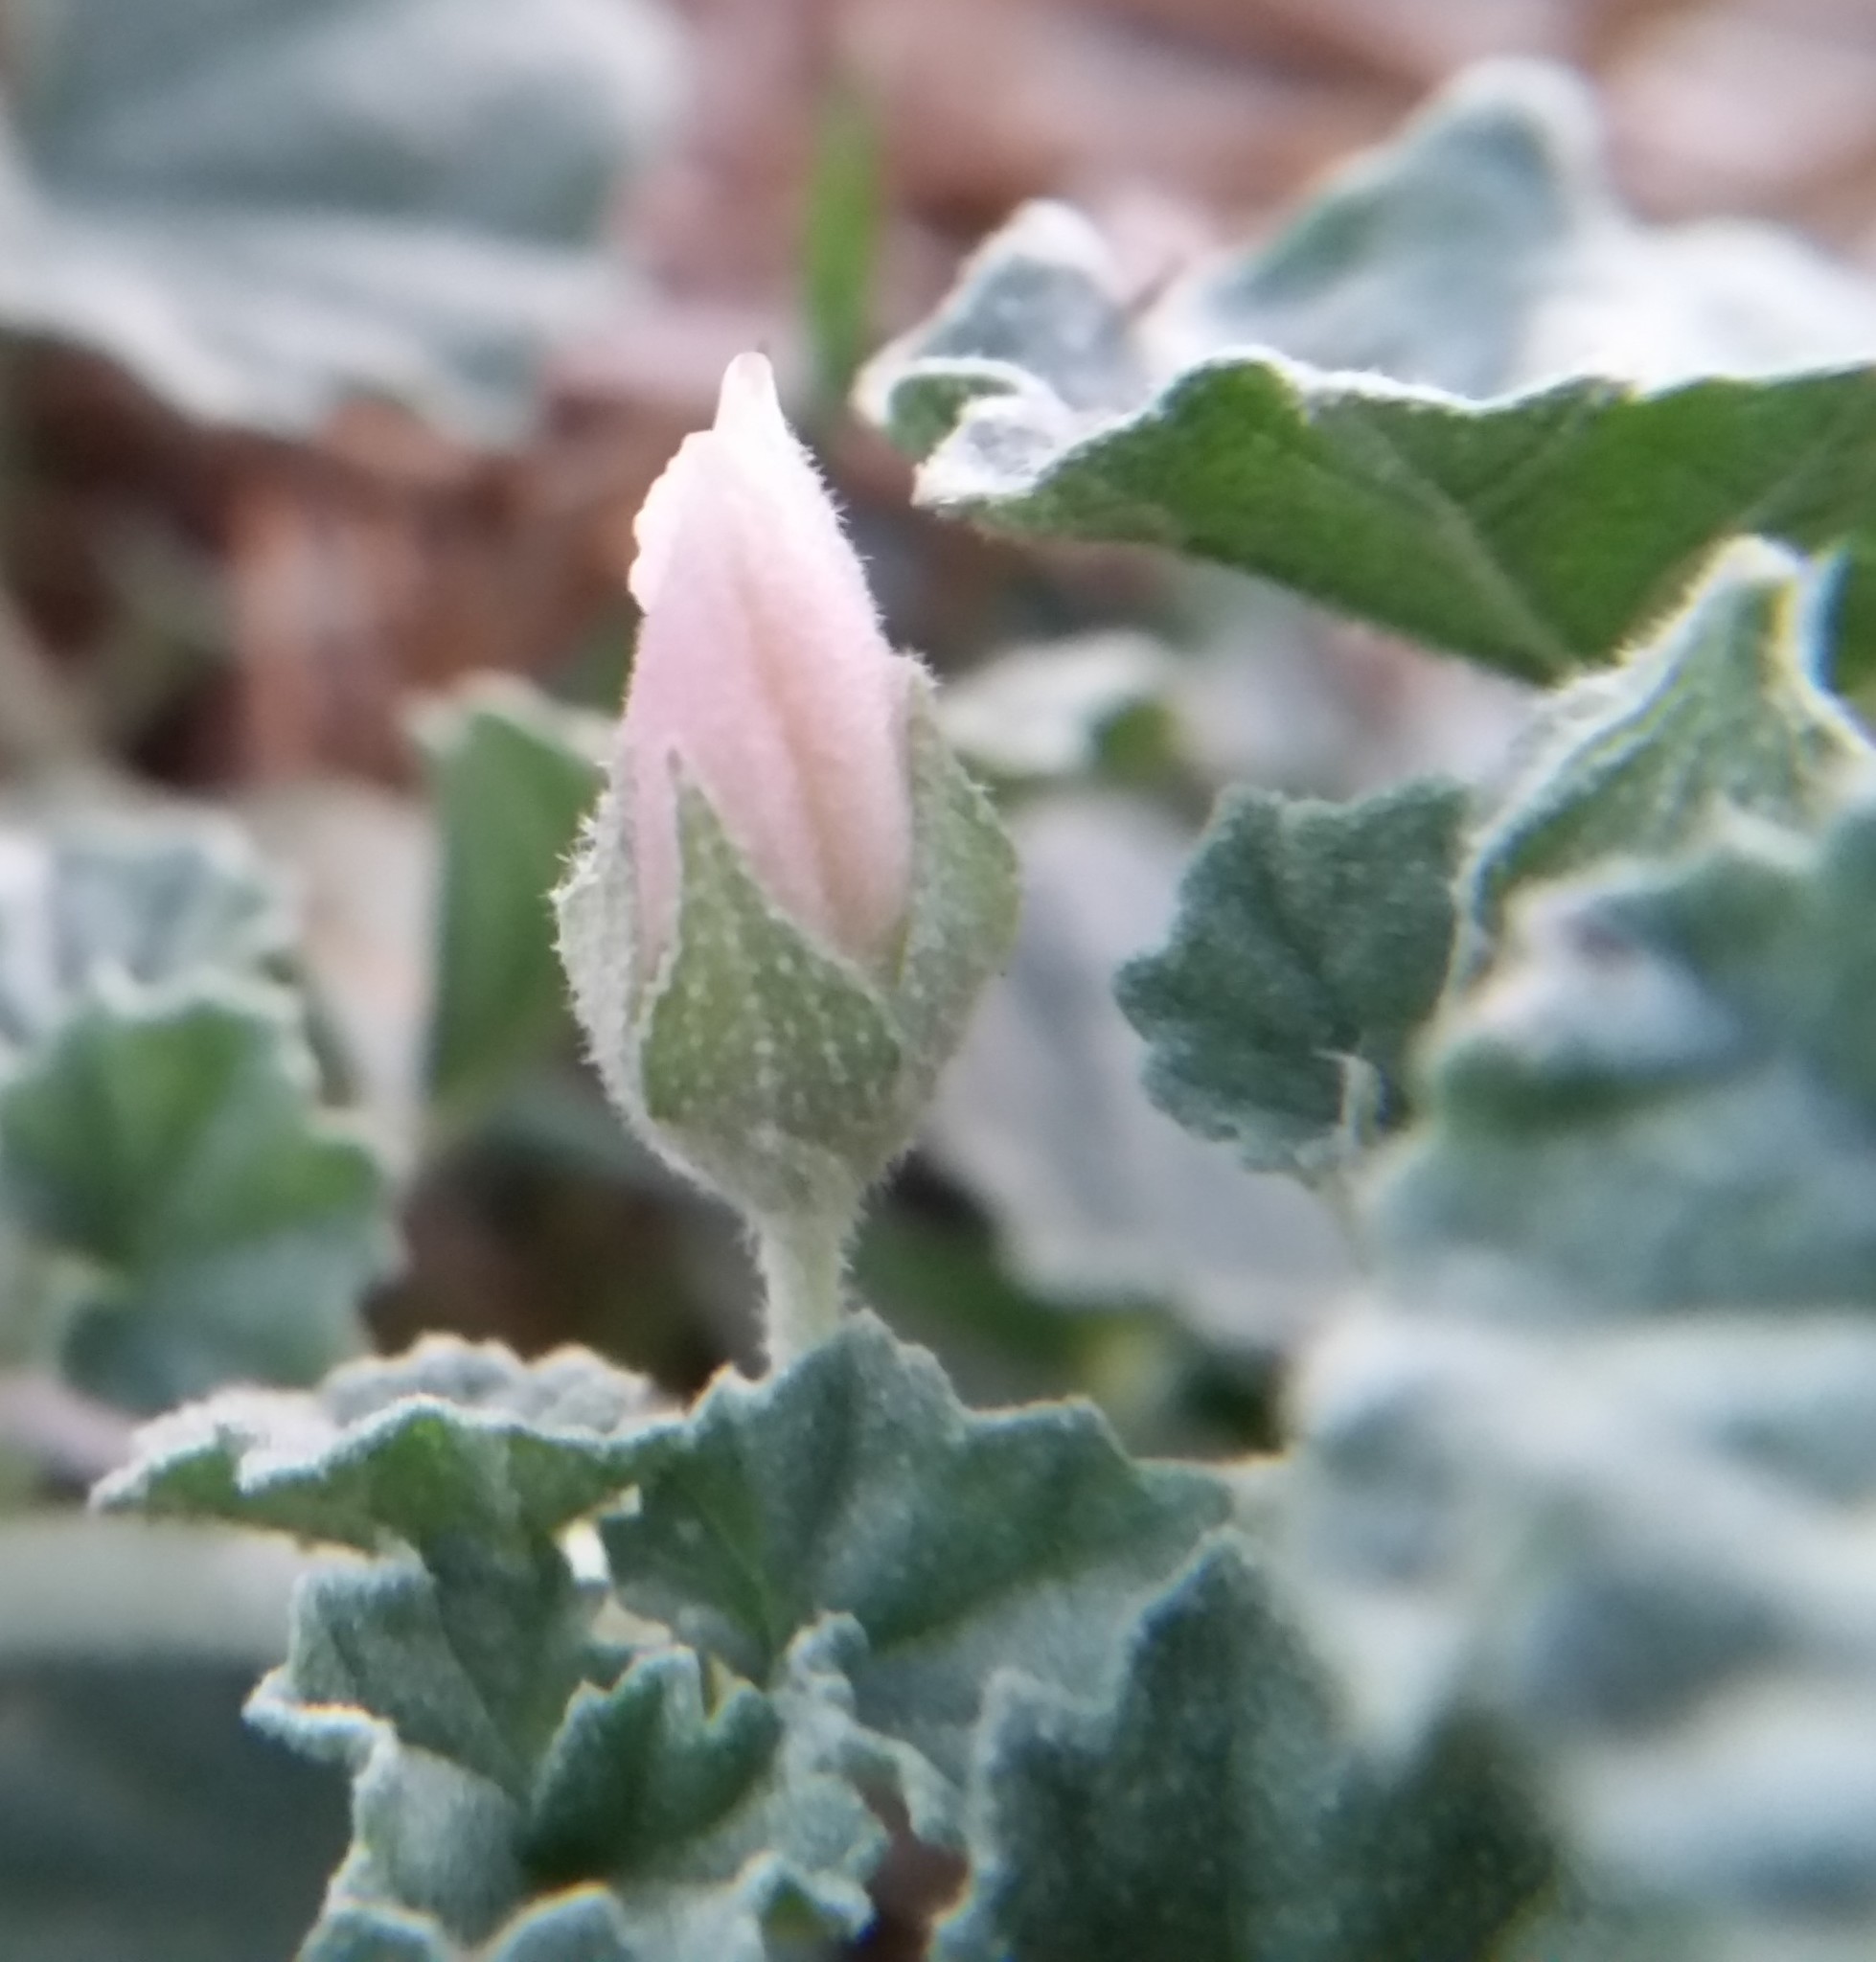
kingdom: Plantae
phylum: Tracheophyta
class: Magnoliopsida
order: Malvales
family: Malvaceae
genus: Malva
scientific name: Malva neglecta
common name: Common mallow
